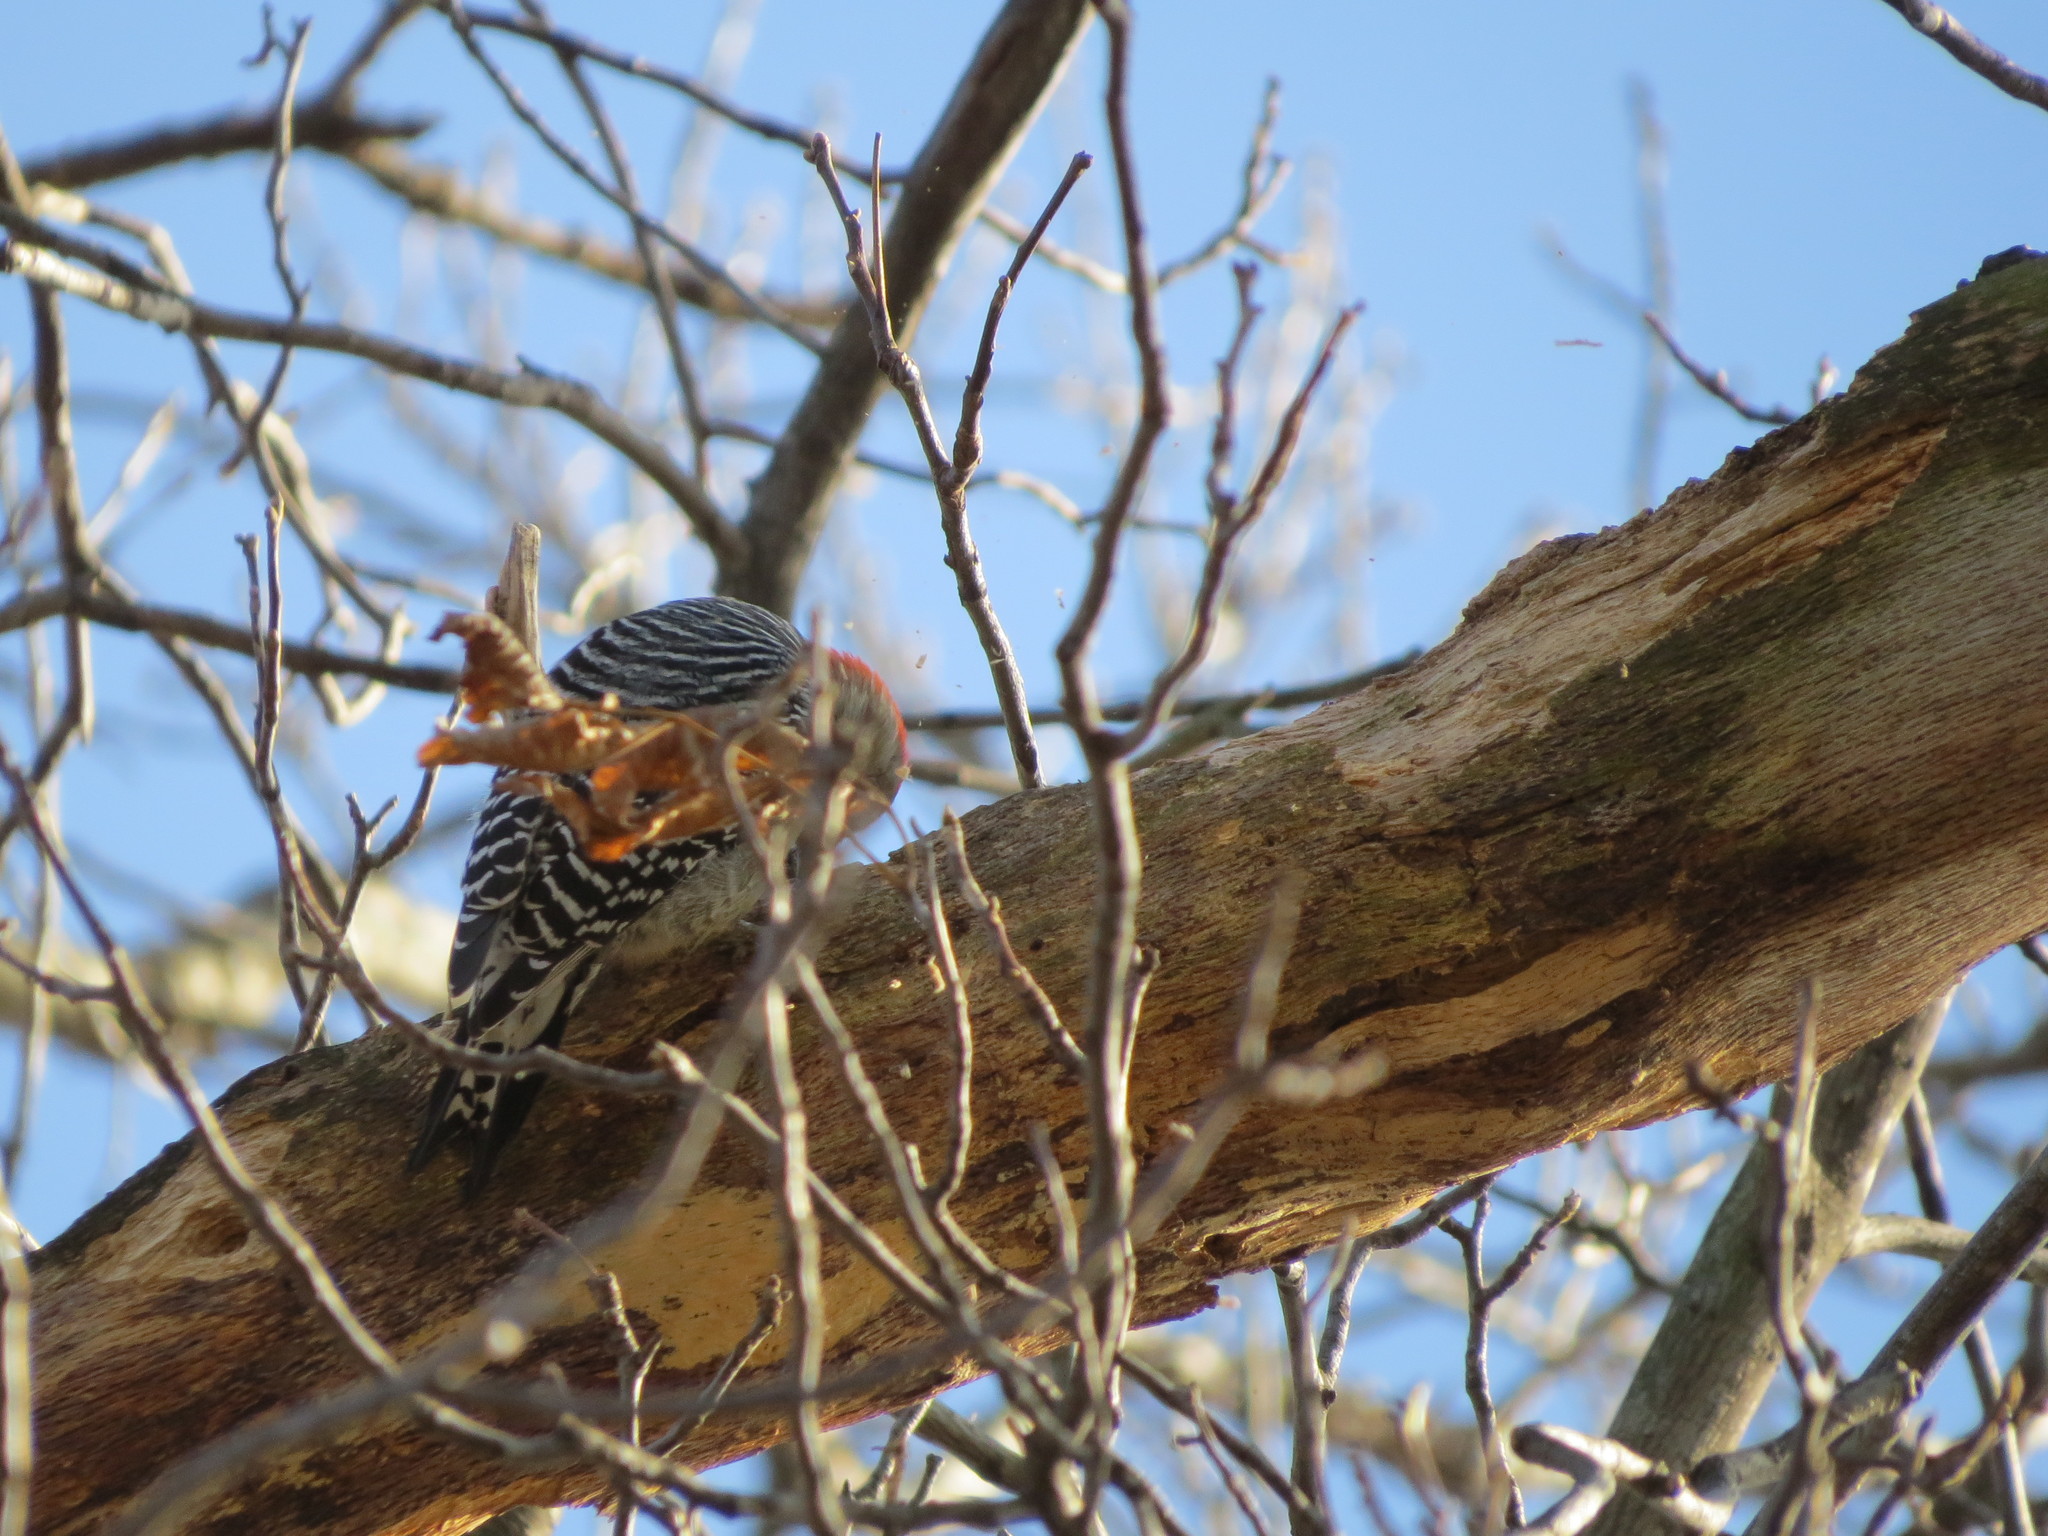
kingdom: Animalia
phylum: Chordata
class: Aves
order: Piciformes
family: Picidae
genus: Melanerpes
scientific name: Melanerpes carolinus
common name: Red-bellied woodpecker
